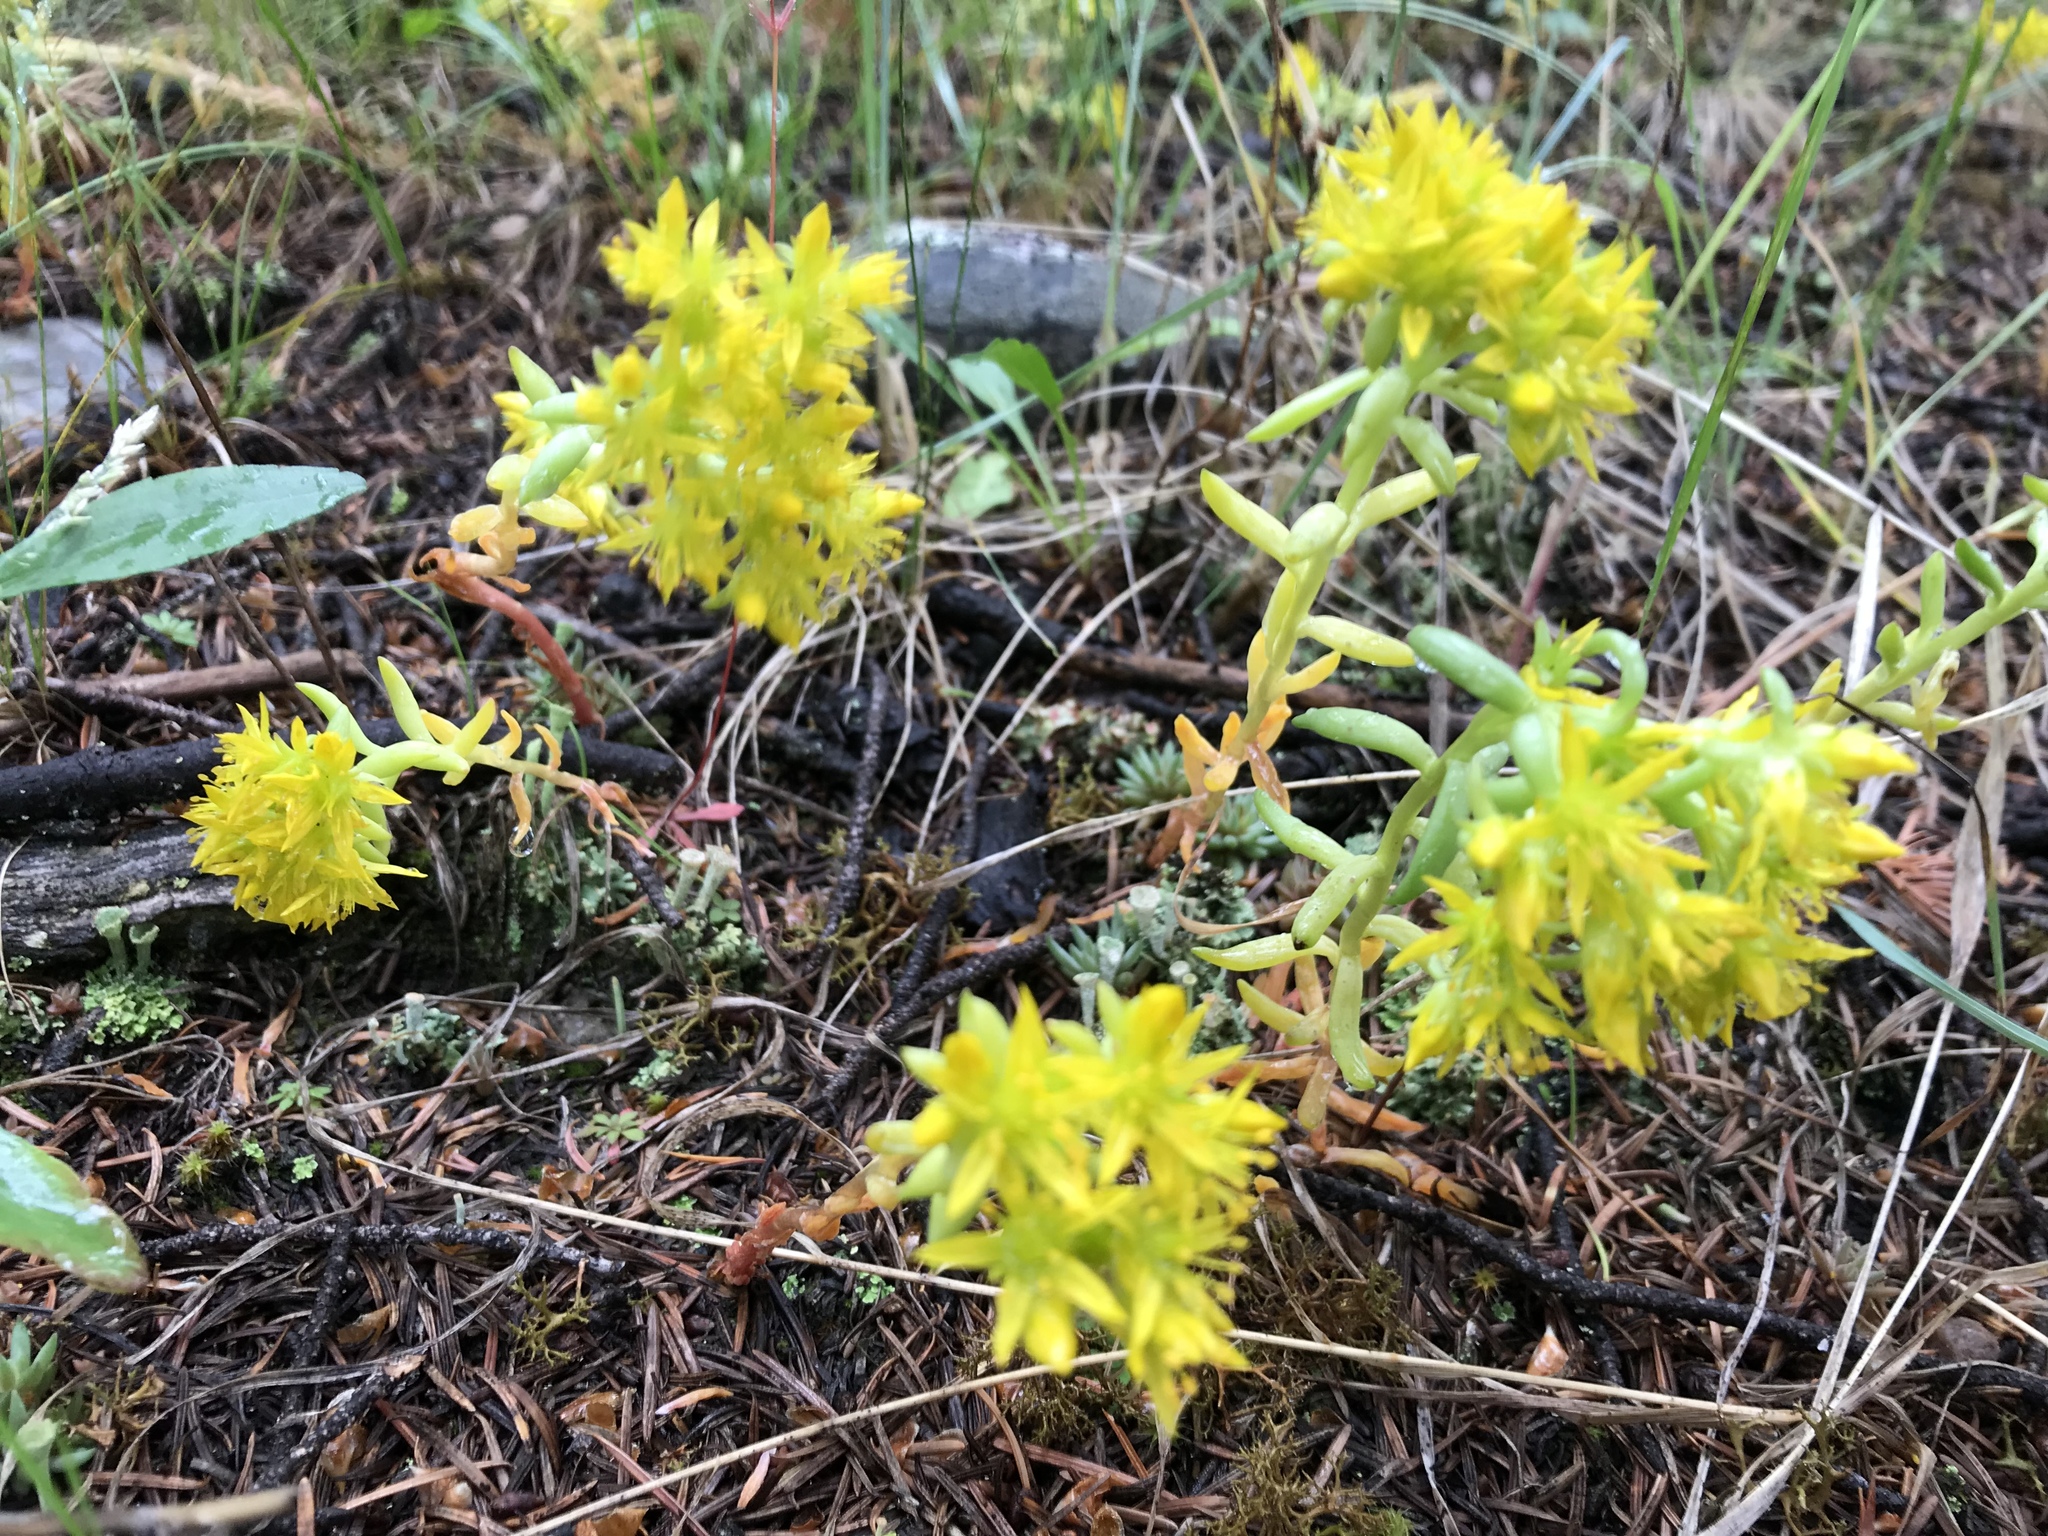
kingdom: Plantae
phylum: Tracheophyta
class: Magnoliopsida
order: Saxifragales
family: Crassulaceae
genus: Sedum
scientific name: Sedum lanceolatum
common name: Common stonecrop
